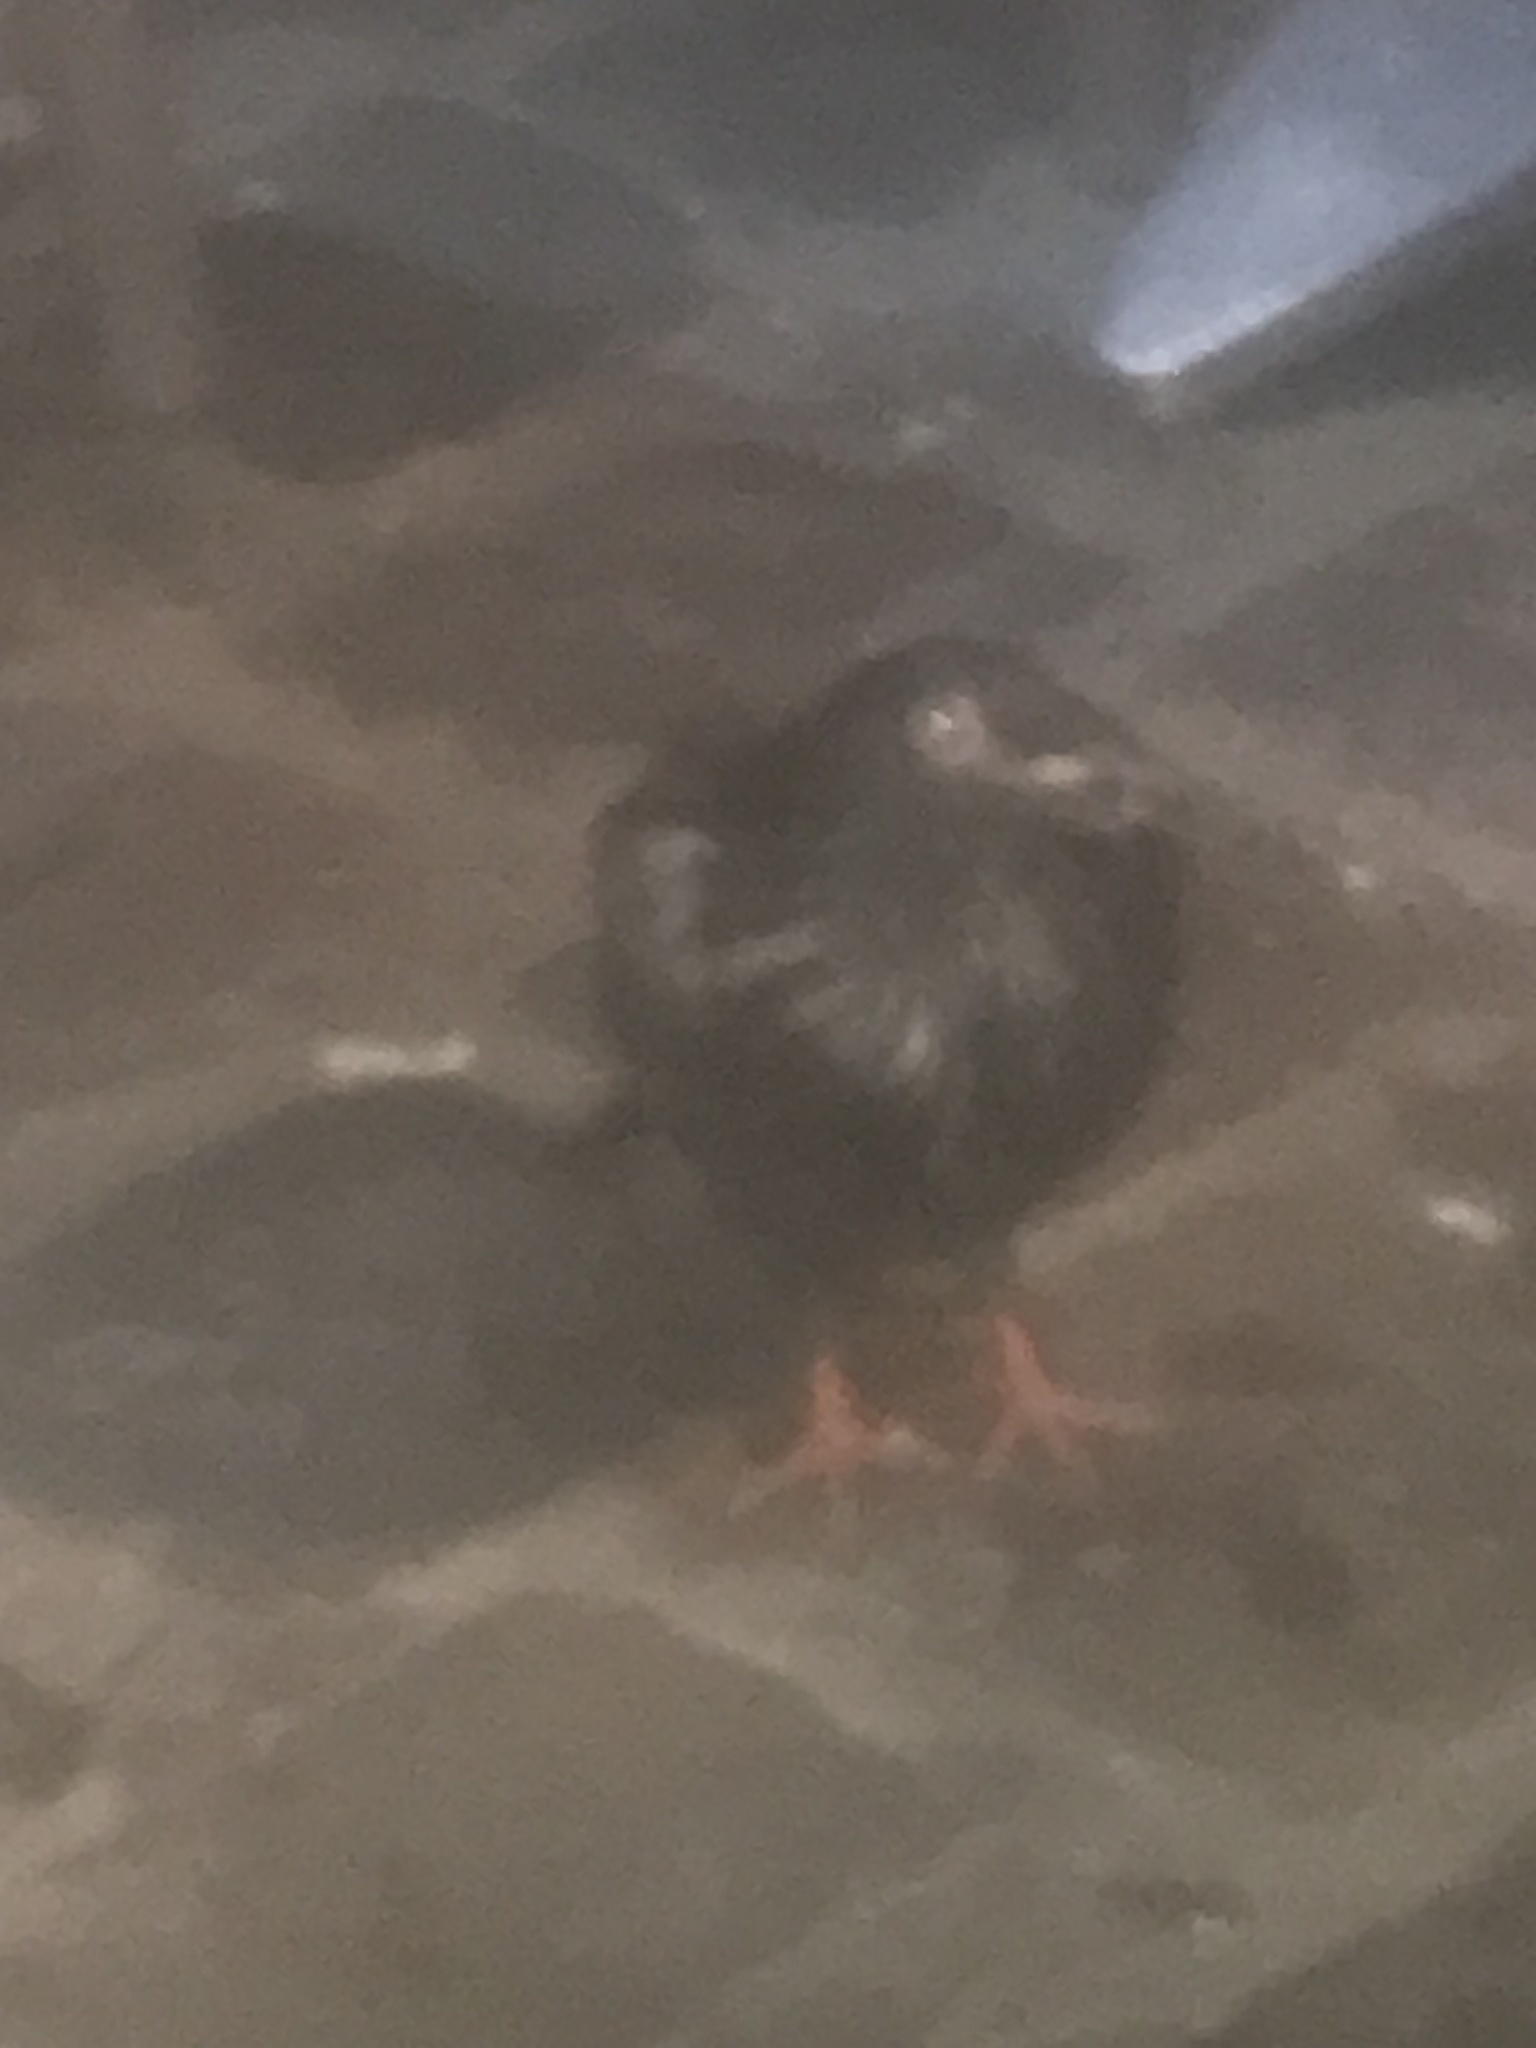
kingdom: Animalia
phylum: Chordata
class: Aves
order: Columbiformes
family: Columbidae
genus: Columba
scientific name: Columba livia
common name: Rock pigeon
